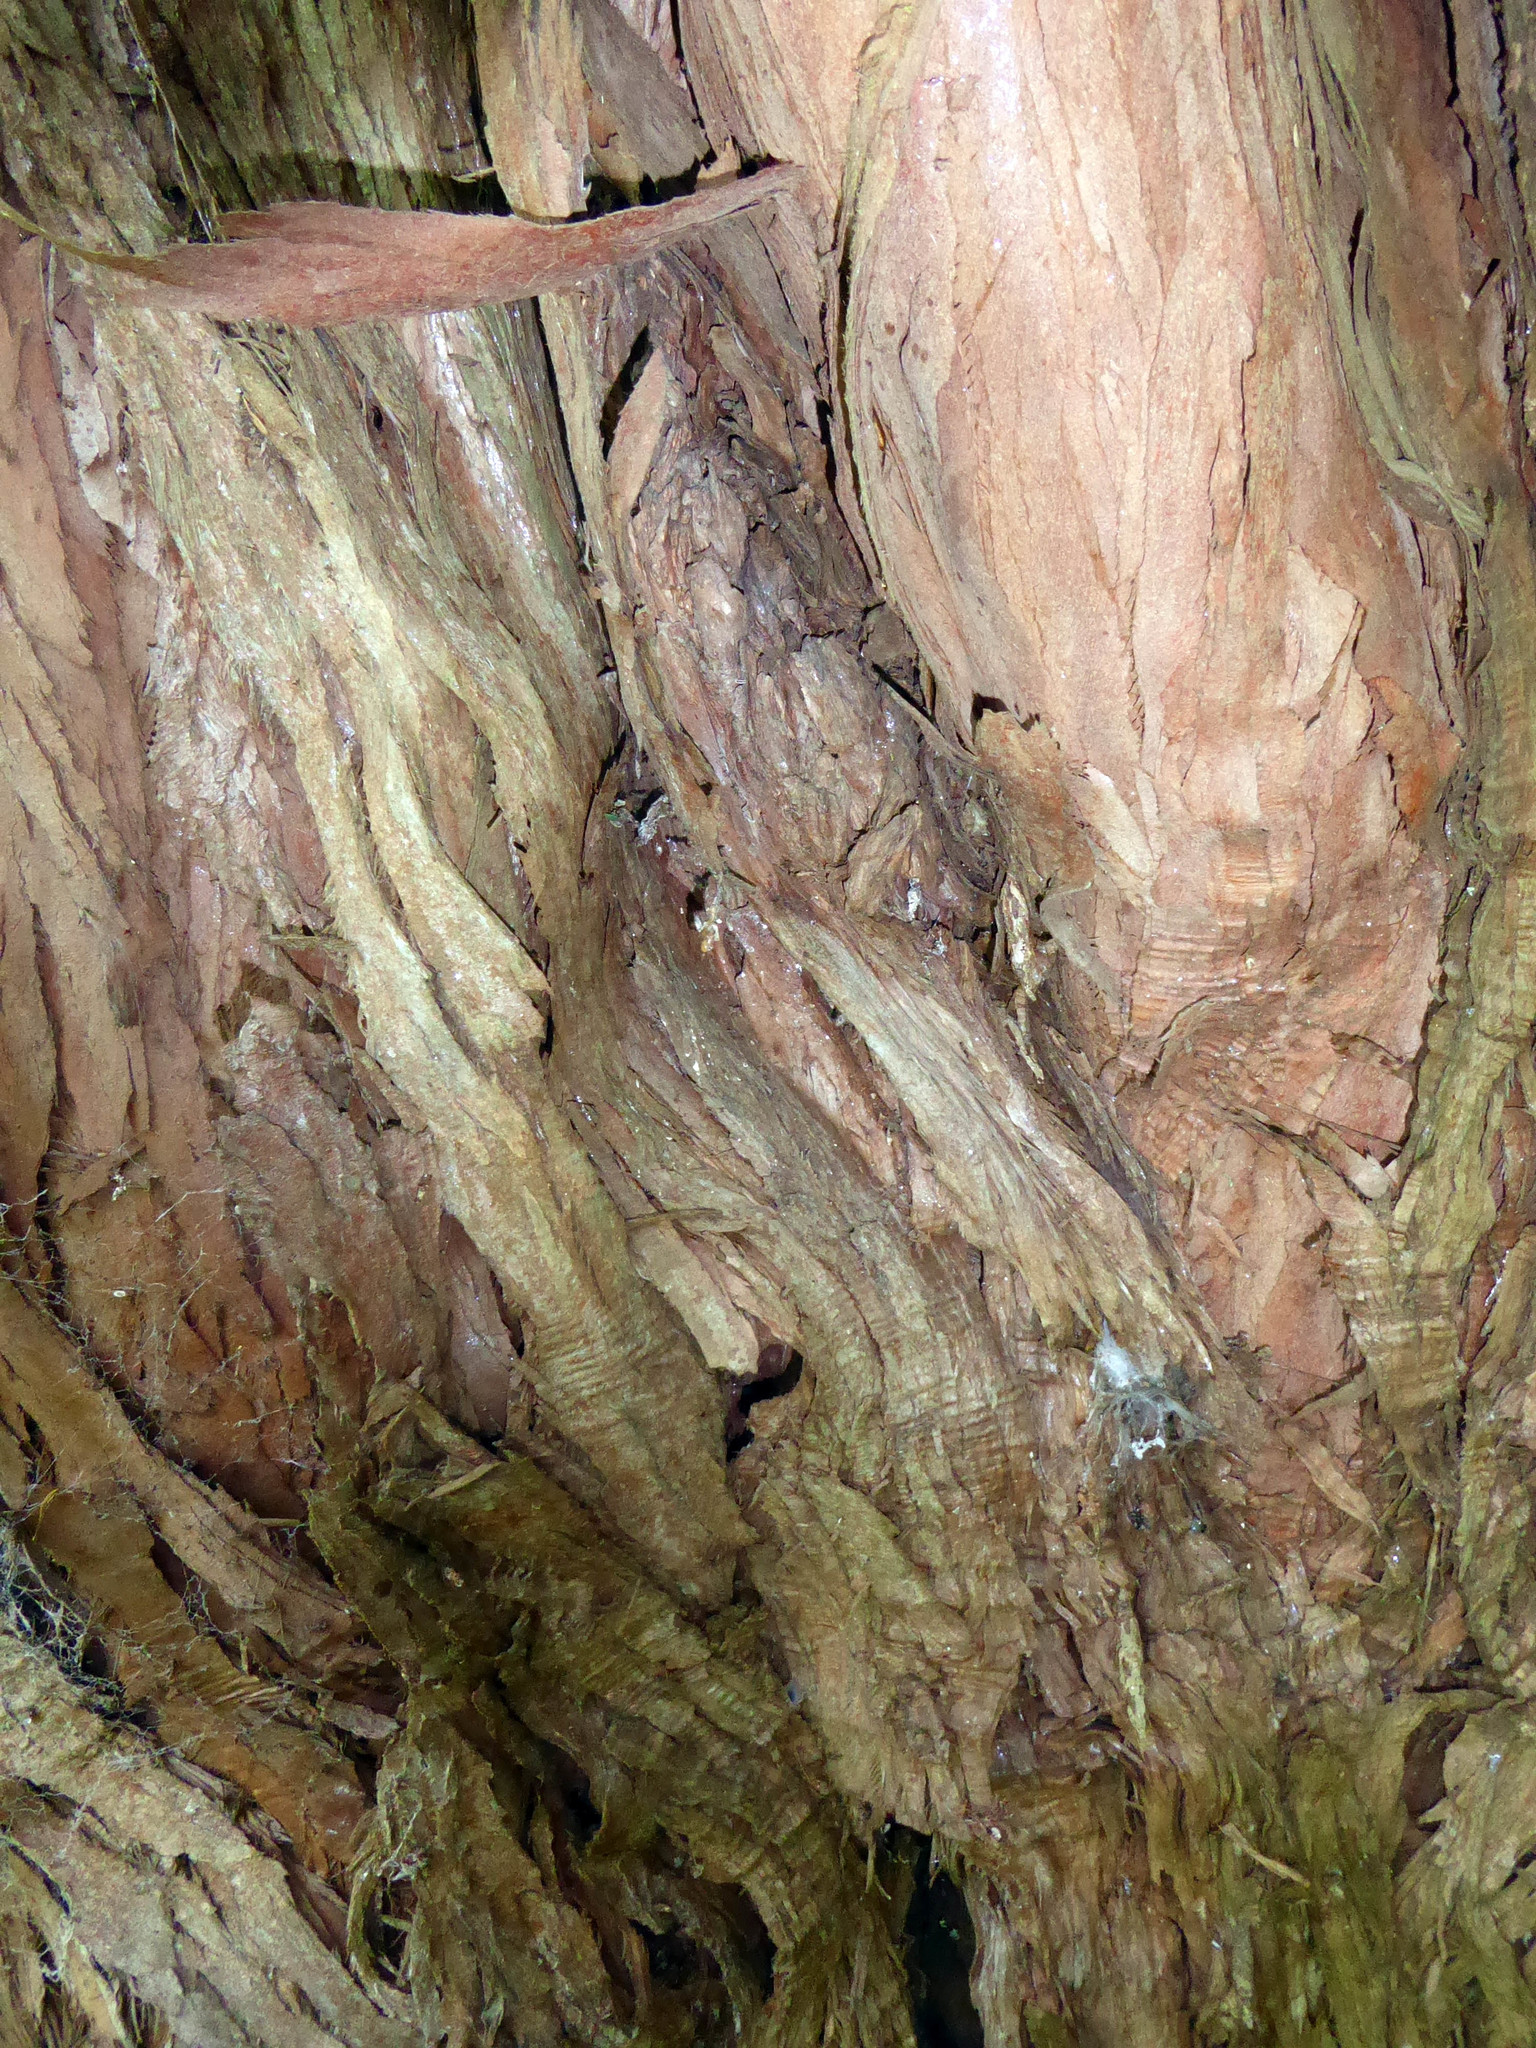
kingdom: Plantae
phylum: Tracheophyta
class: Pinopsida
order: Pinales
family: Podocarpaceae
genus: Podocarpus
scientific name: Podocarpus
